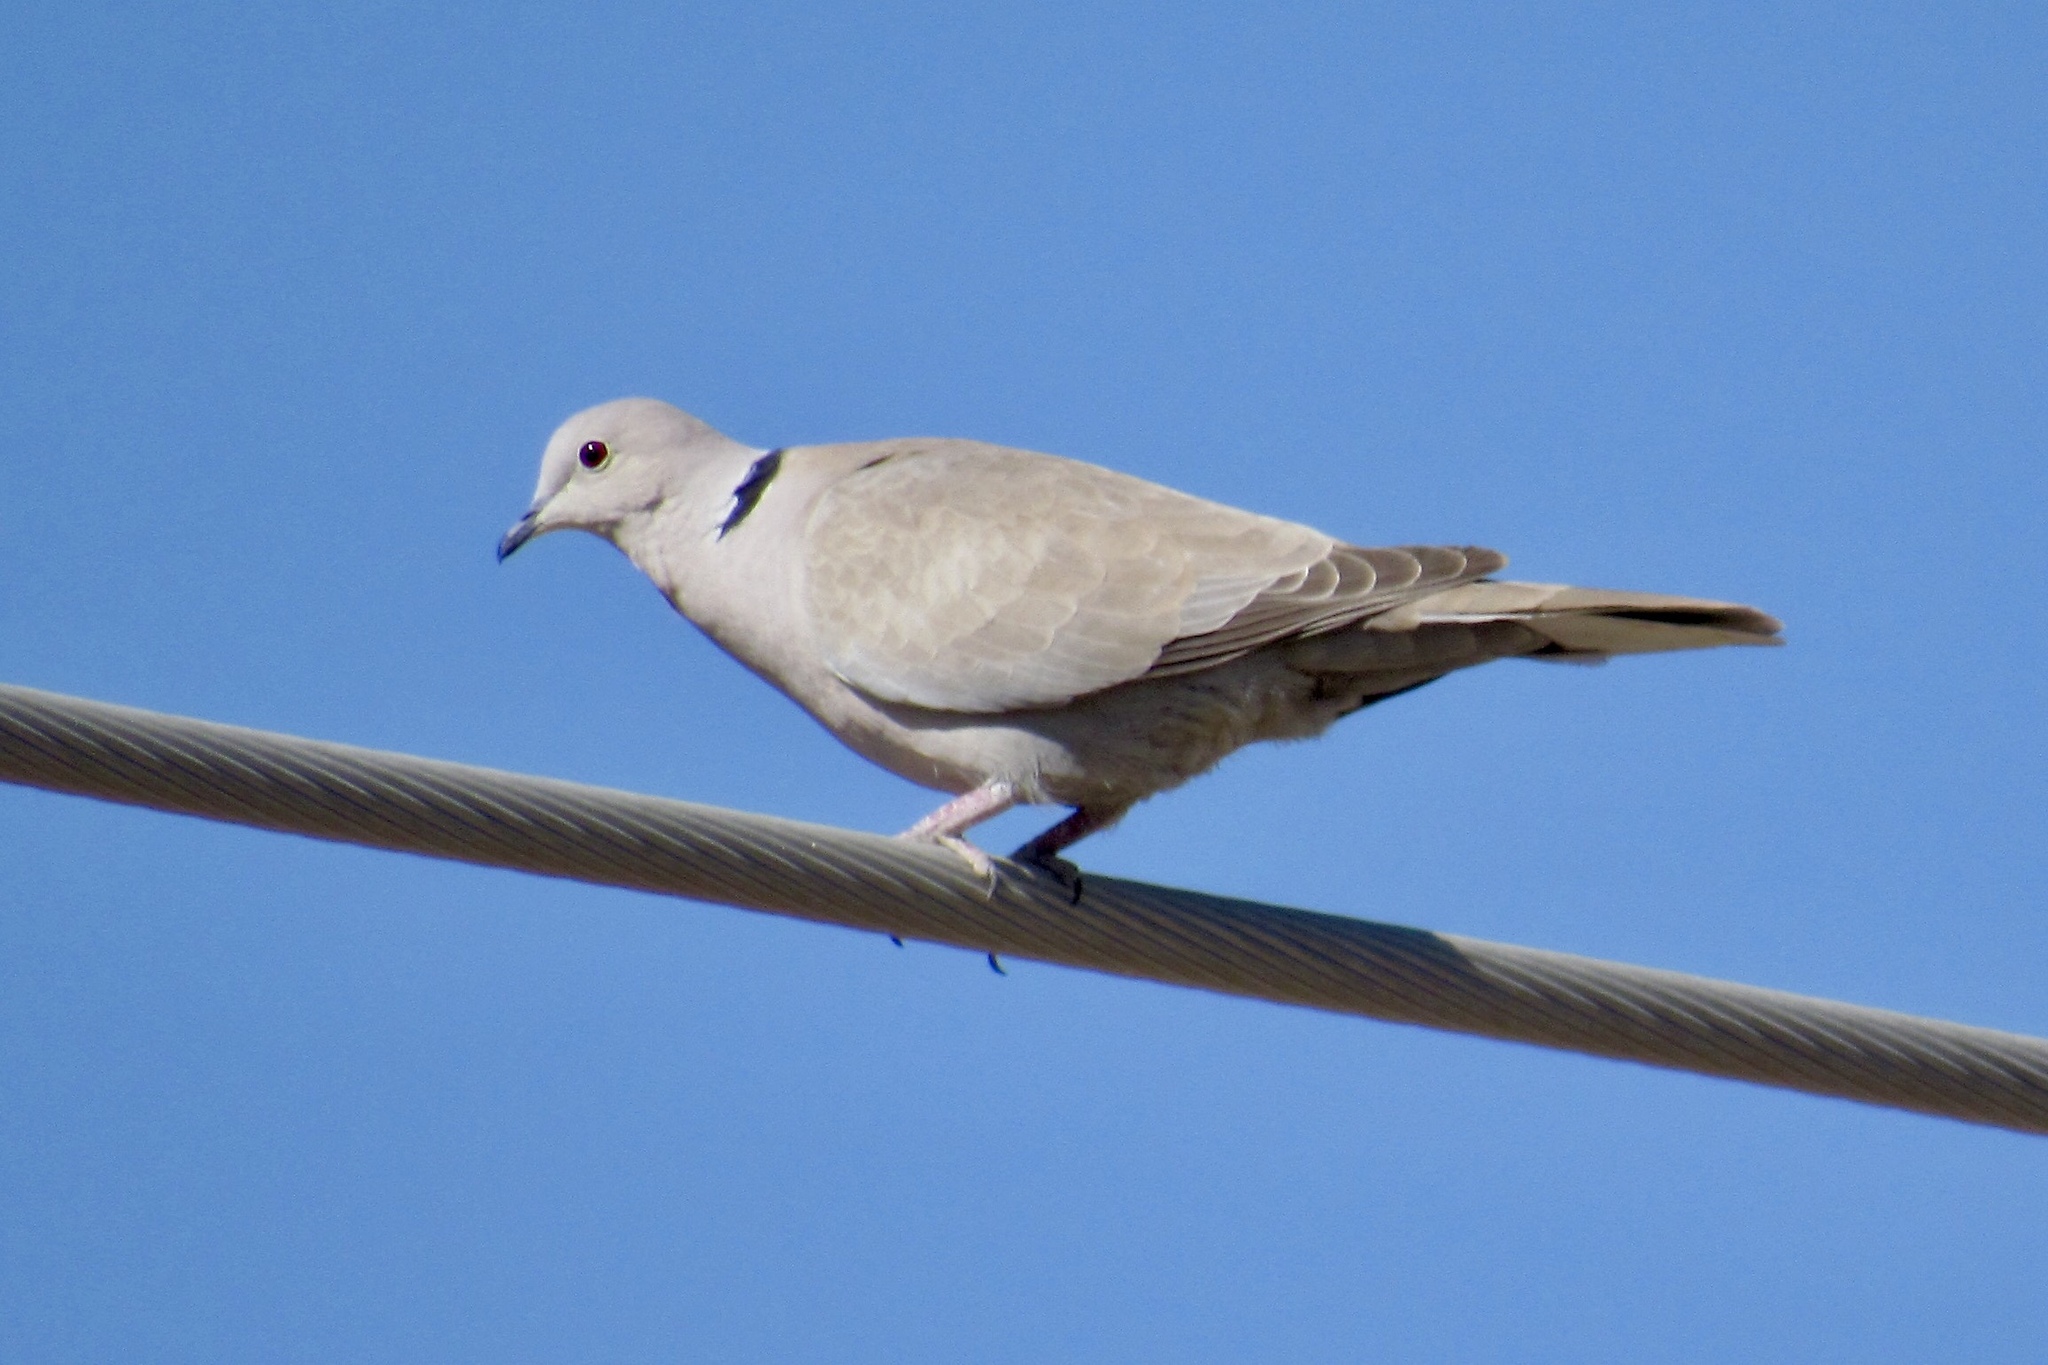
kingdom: Animalia
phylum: Chordata
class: Aves
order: Columbiformes
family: Columbidae
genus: Streptopelia
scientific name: Streptopelia decaocto
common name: Eurasian collared dove
